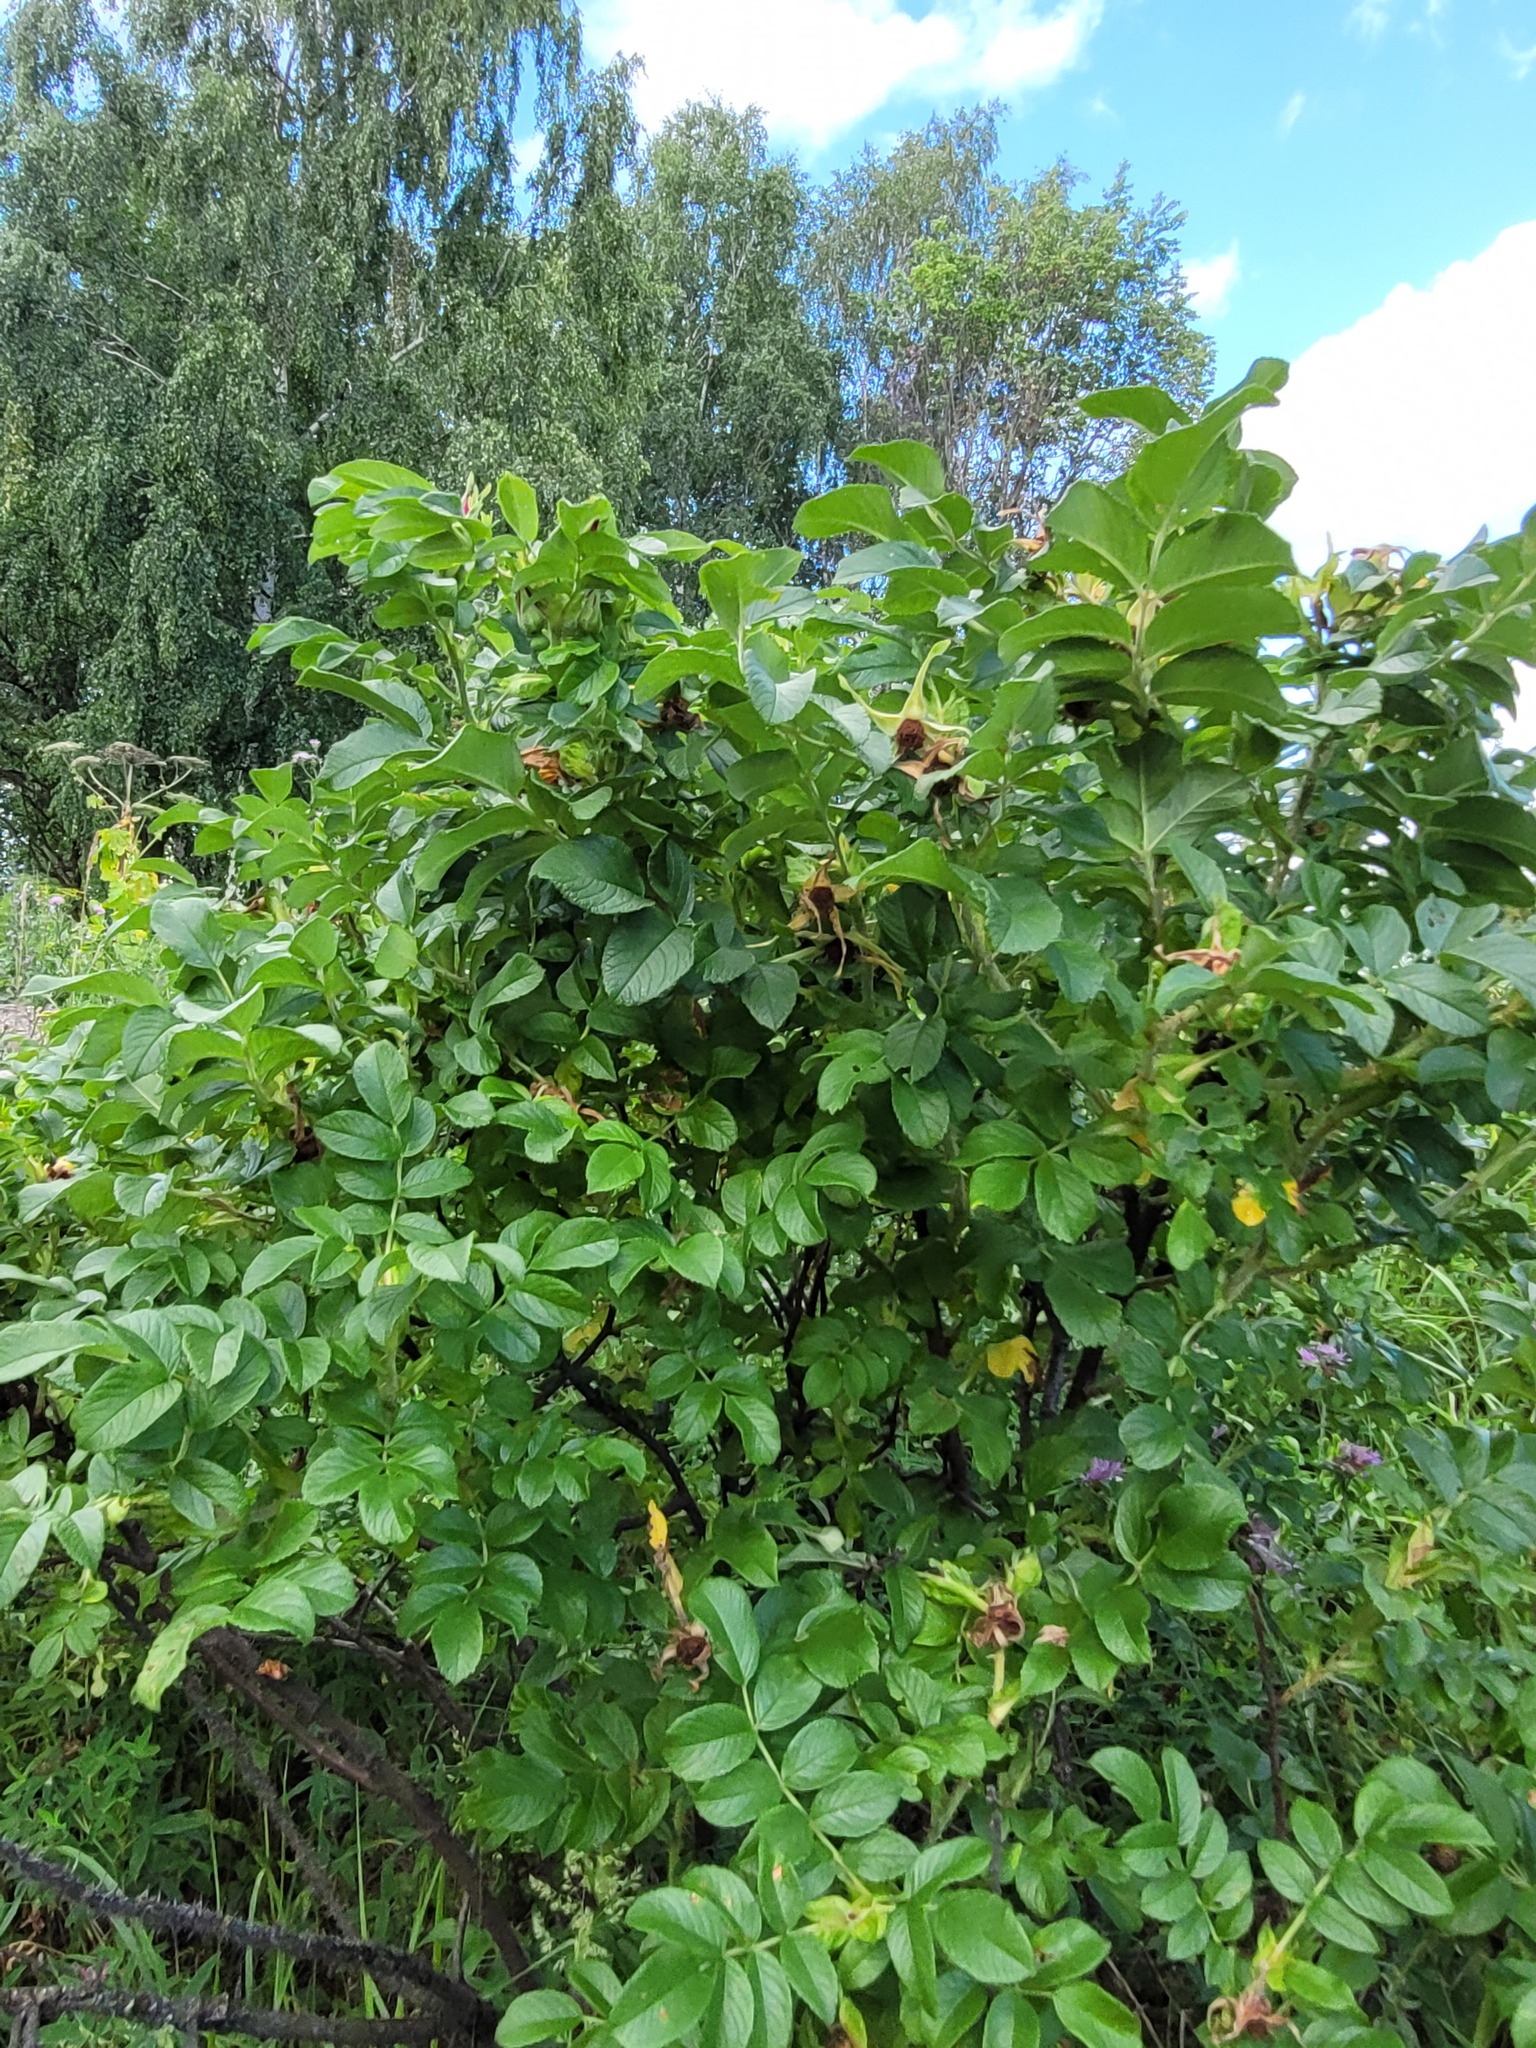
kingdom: Plantae
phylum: Tracheophyta
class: Magnoliopsida
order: Rosales
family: Rosaceae
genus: Rosa
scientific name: Rosa rugosa
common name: Japanese rose
